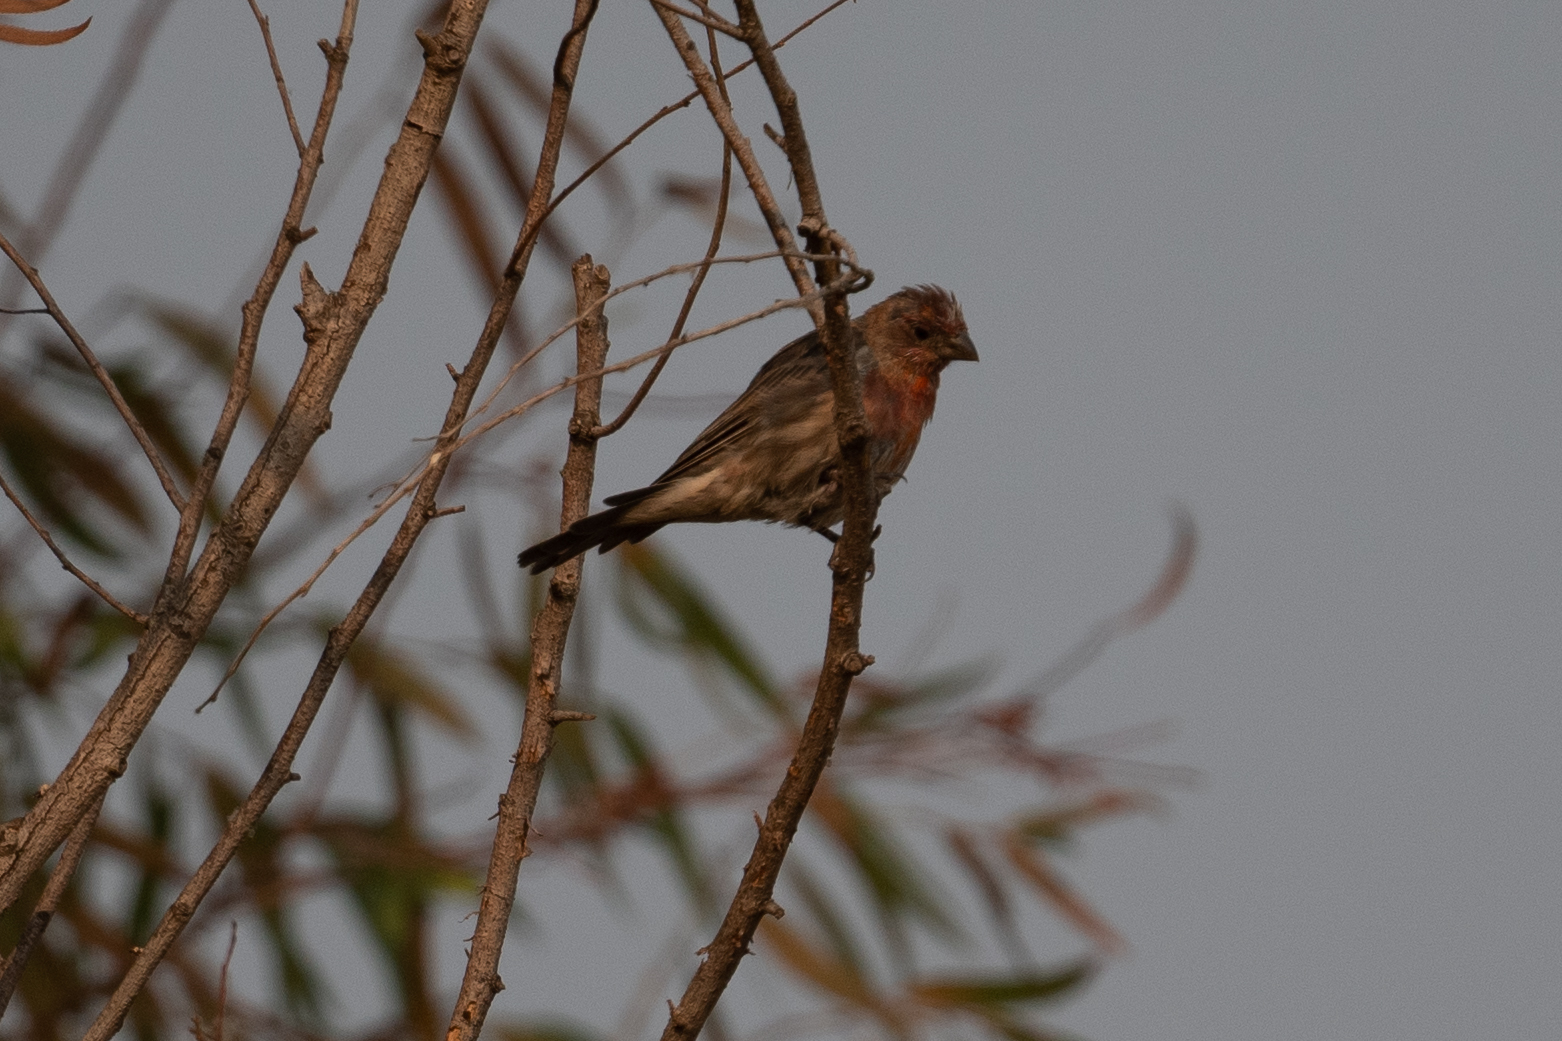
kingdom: Animalia
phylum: Chordata
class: Aves
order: Passeriformes
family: Fringillidae
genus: Haemorhous
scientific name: Haemorhous mexicanus
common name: House finch
